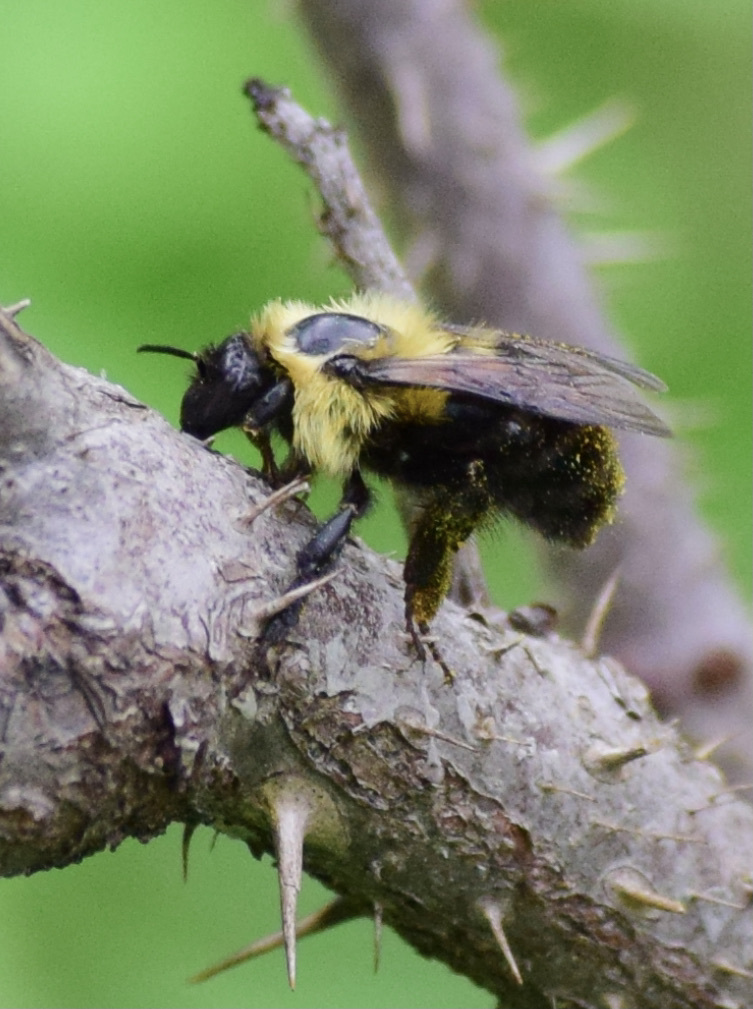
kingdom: Animalia
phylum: Arthropoda
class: Insecta
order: Hymenoptera
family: Apidae
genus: Bombus
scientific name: Bombus bimaculatus
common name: Two-spotted bumble bee
